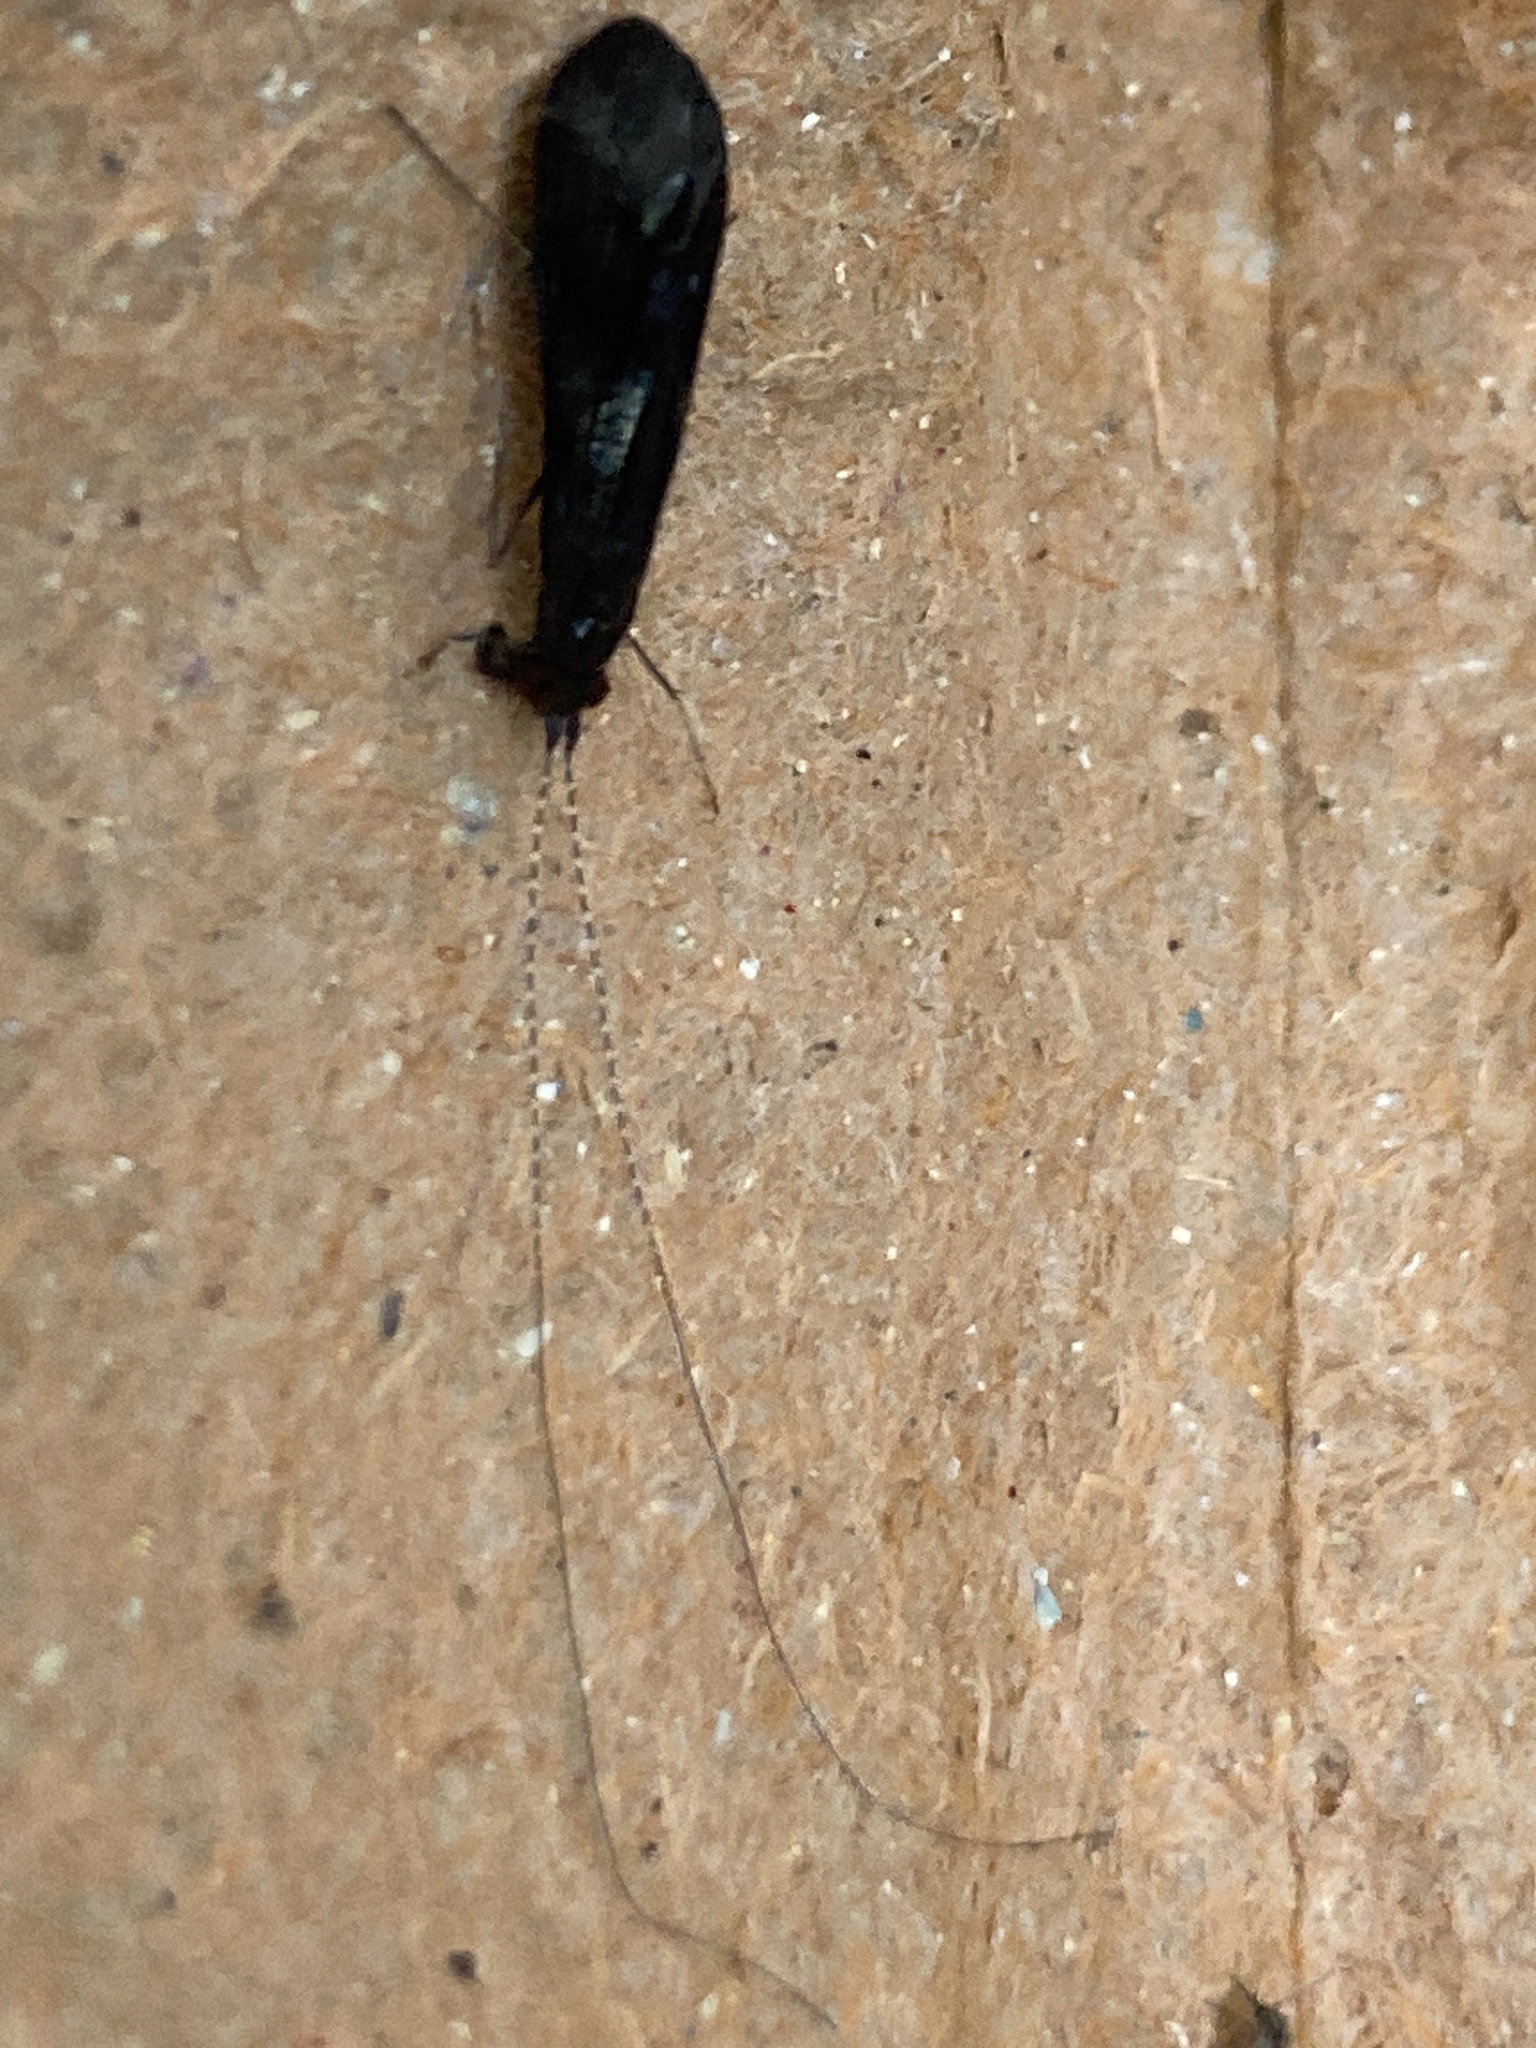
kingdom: Animalia
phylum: Arthropoda
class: Insecta
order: Trichoptera
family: Leptoceridae
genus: Mystacides
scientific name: Mystacides azureus
